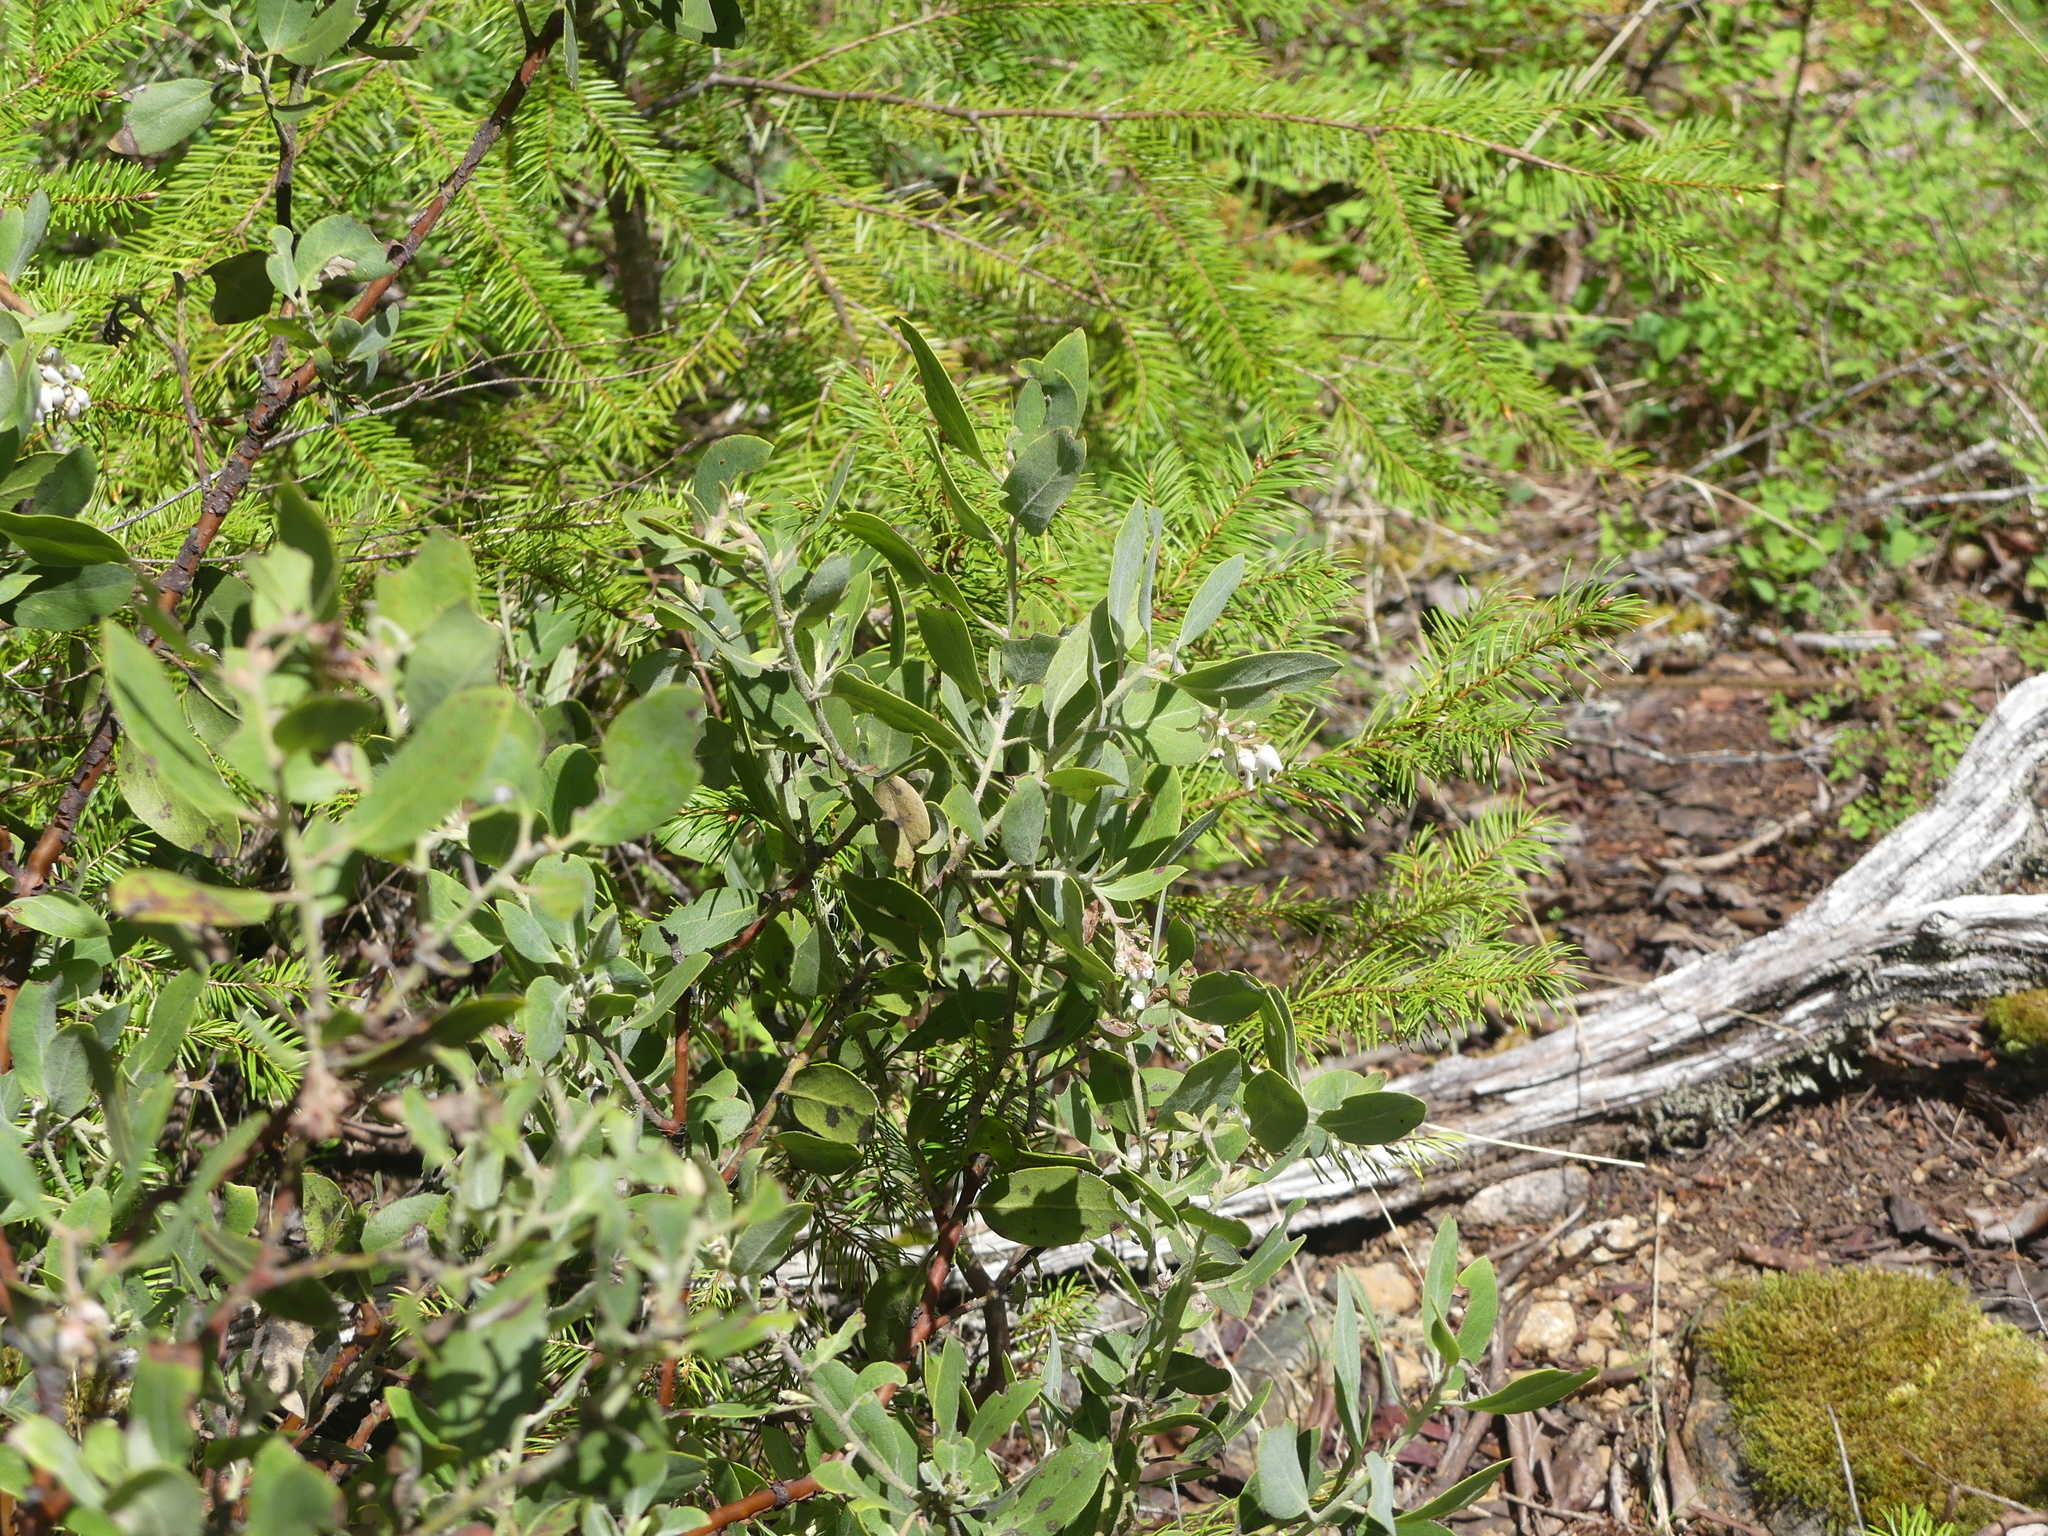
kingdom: Plantae
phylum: Tracheophyta
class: Magnoliopsida
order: Ericales
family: Ericaceae
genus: Arctostaphylos
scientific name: Arctostaphylos columbiana
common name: Bristly bearberry
